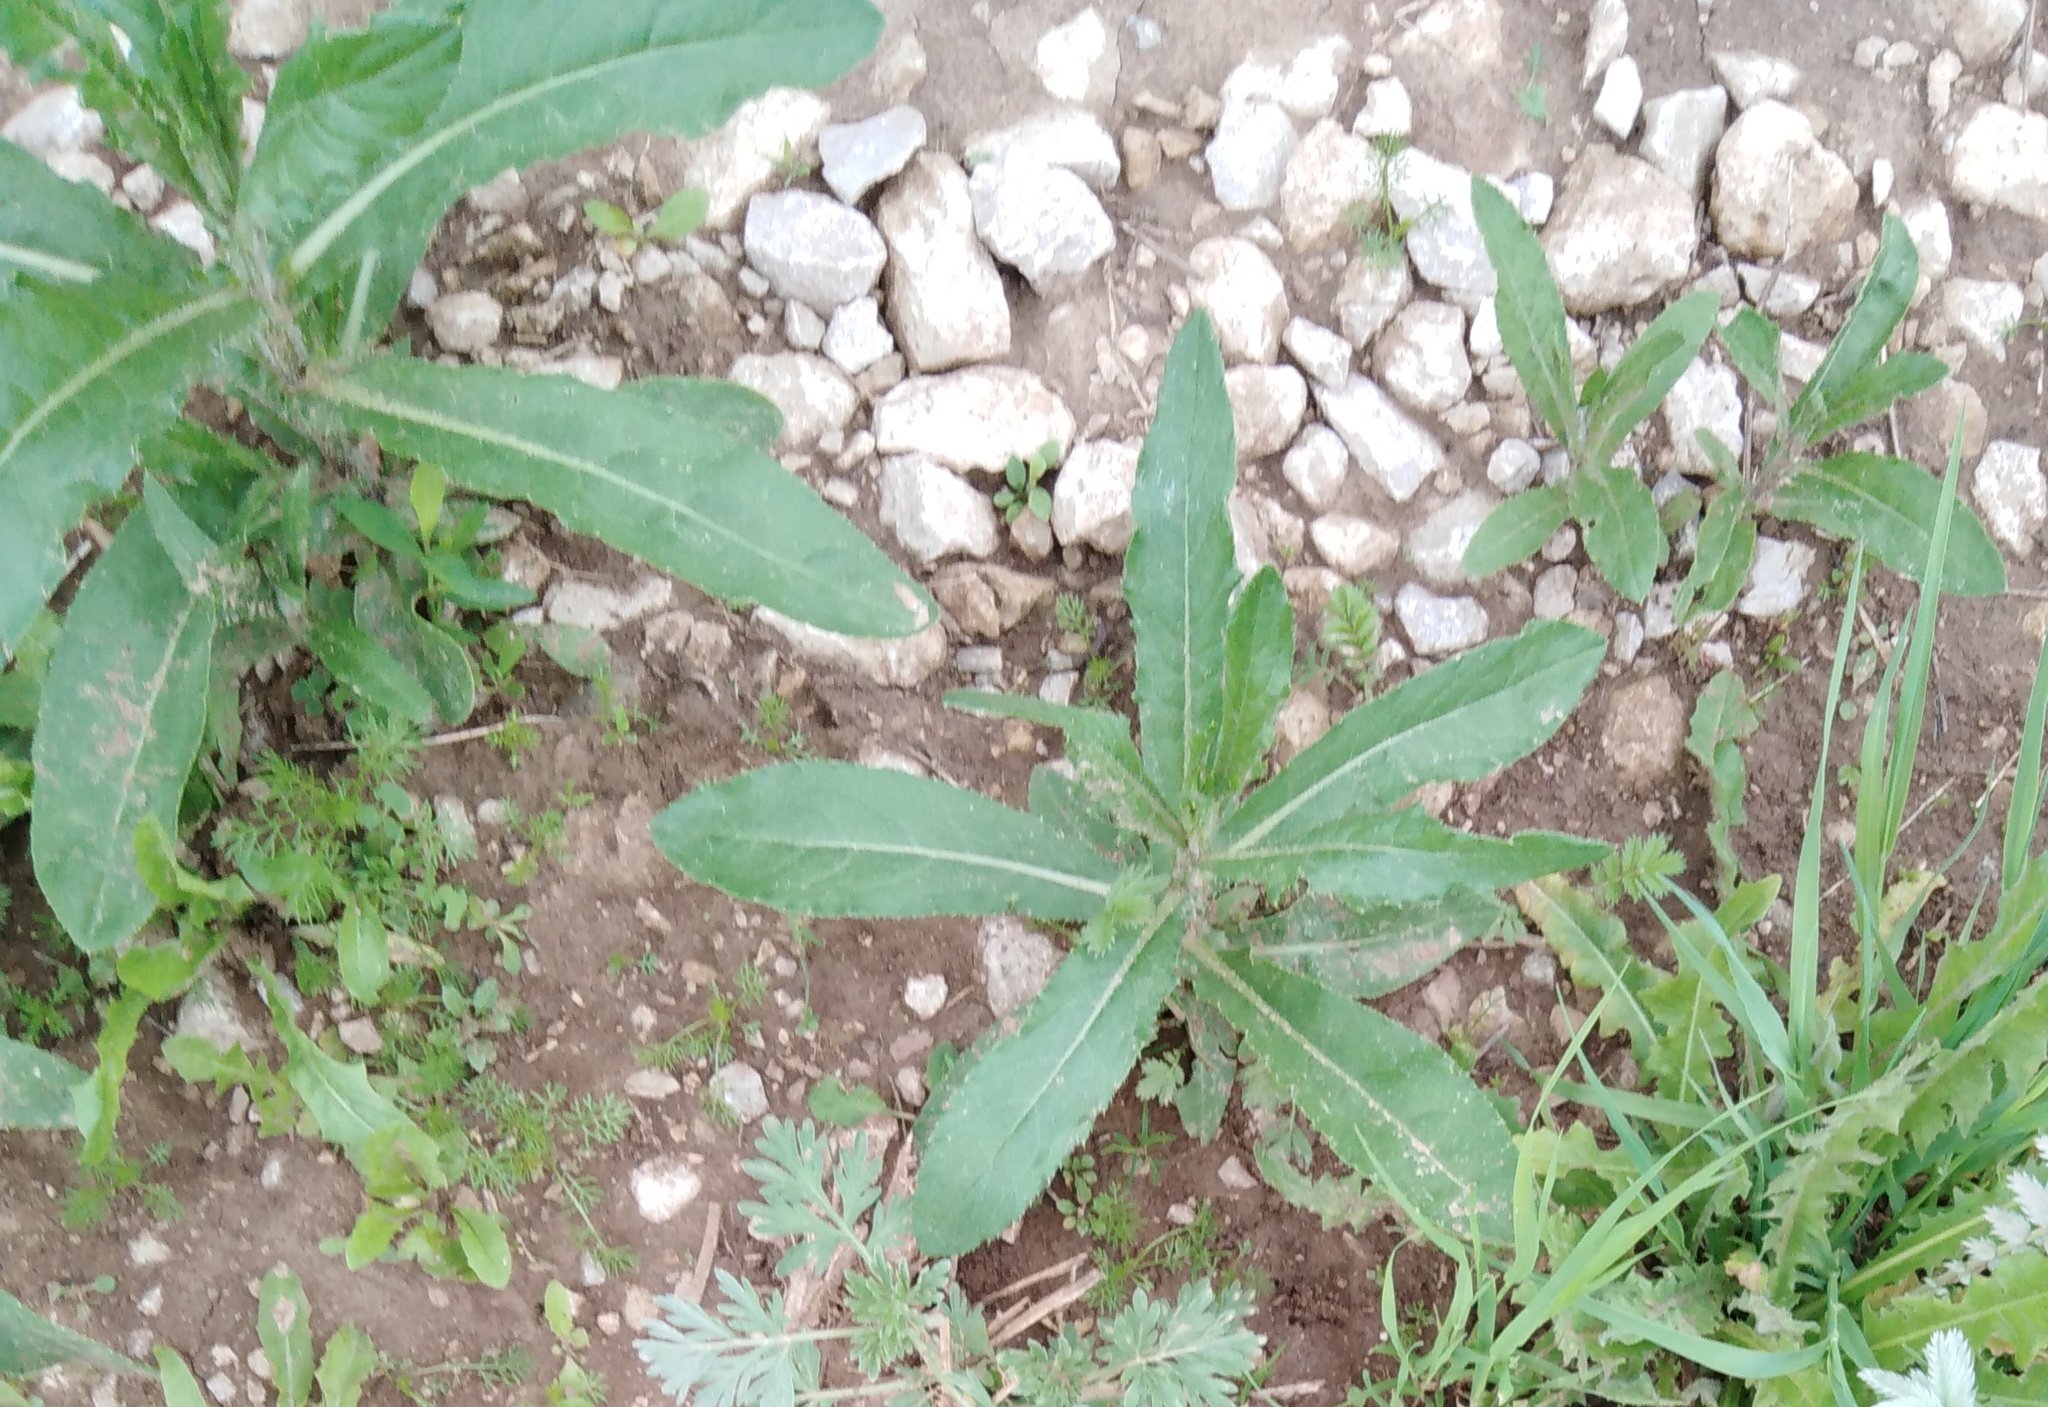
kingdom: Plantae
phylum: Tracheophyta
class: Magnoliopsida
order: Asterales
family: Asteraceae
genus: Cirsium
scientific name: Cirsium arvense
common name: Creeping thistle
